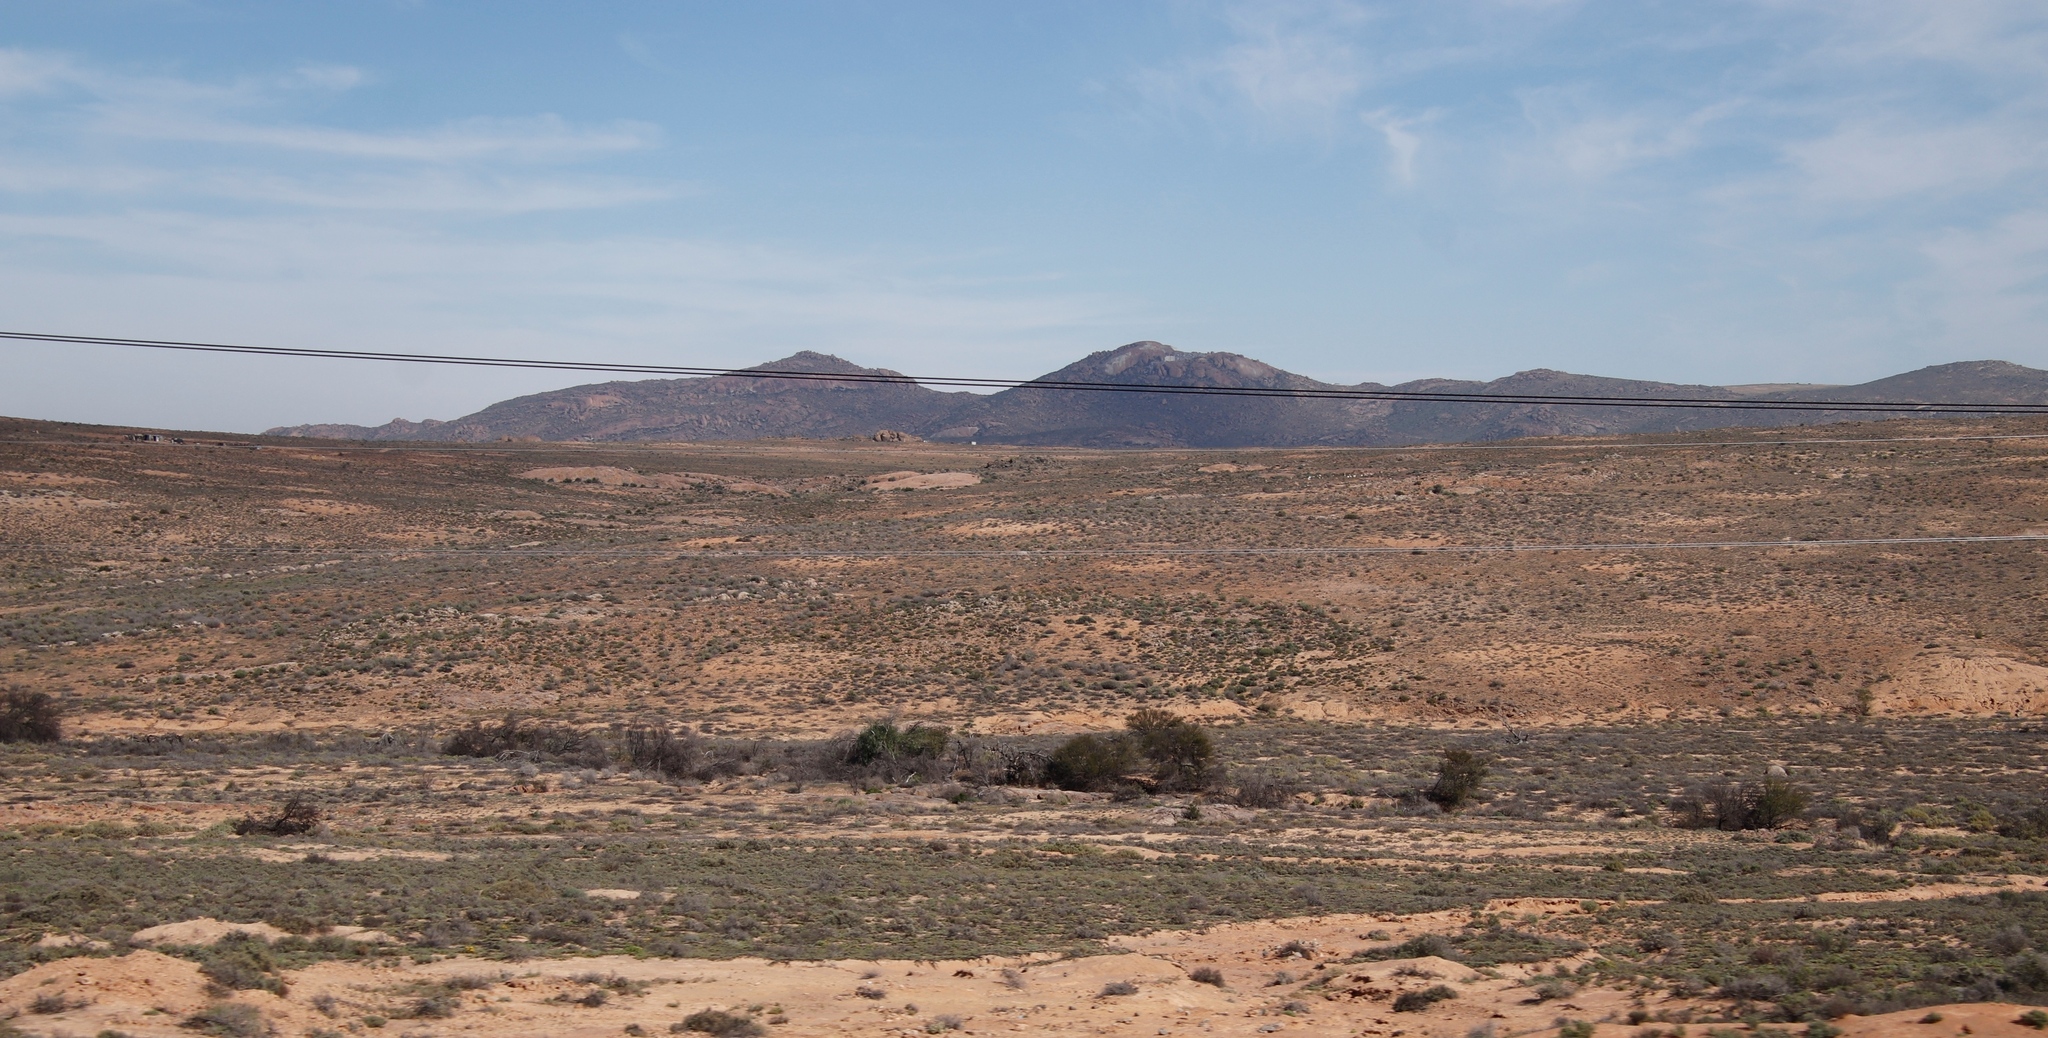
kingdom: Plantae
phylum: Tracheophyta
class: Magnoliopsida
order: Fabales
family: Fabaceae
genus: Vachellia
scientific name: Vachellia karroo
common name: Sweet thorn
